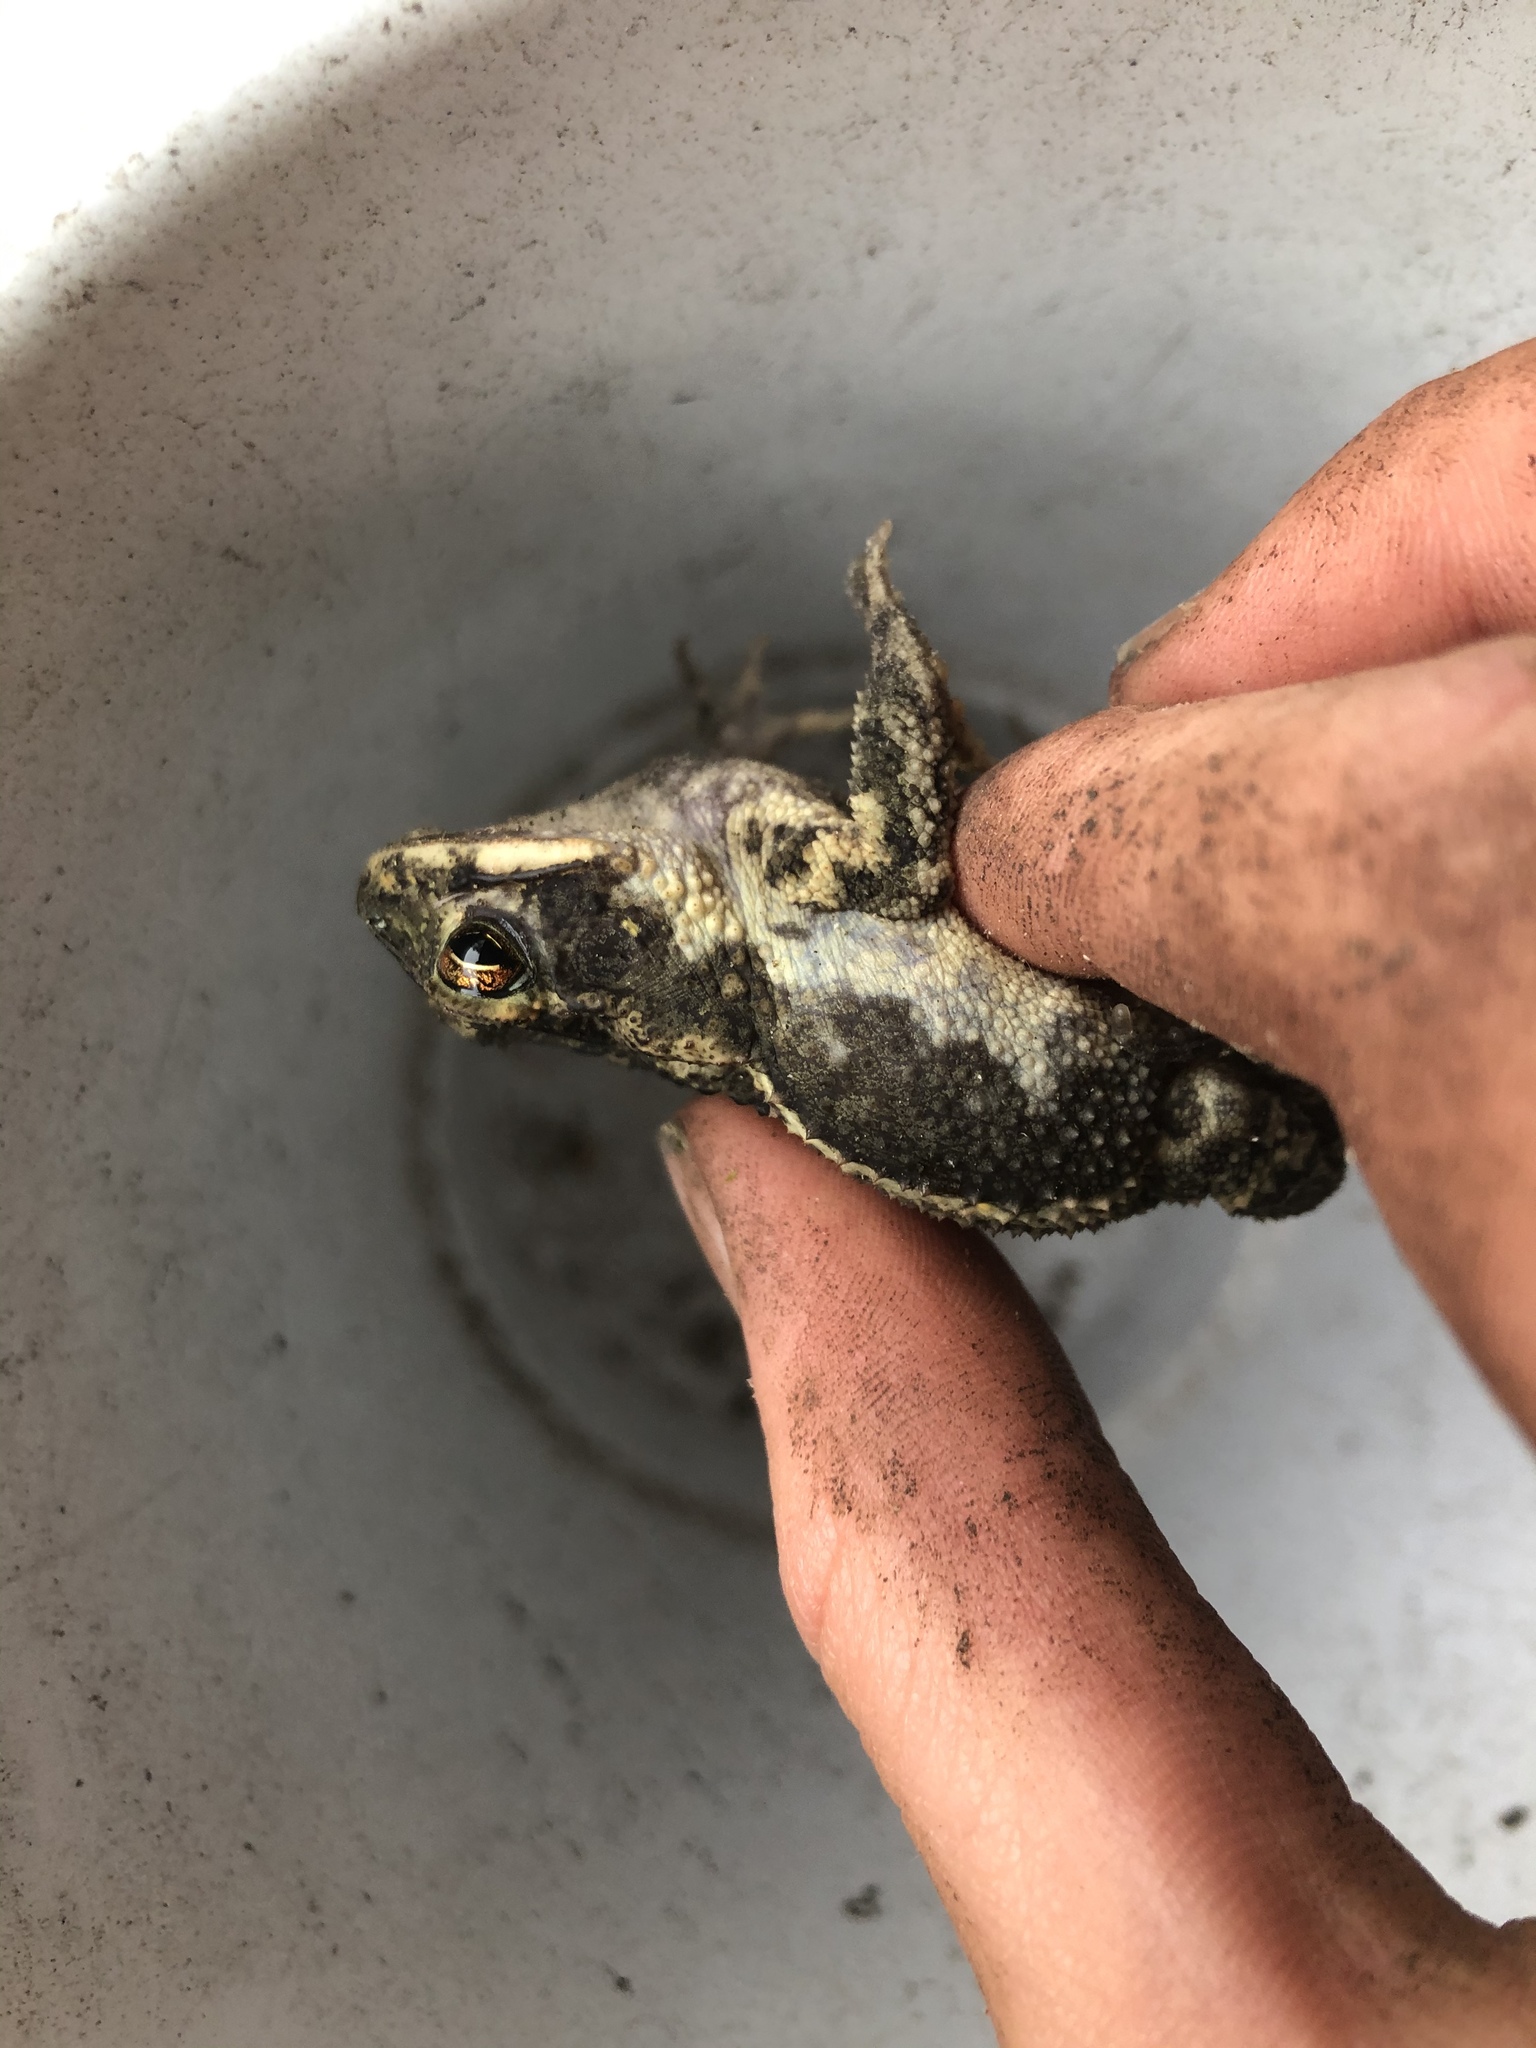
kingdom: Animalia
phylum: Chordata
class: Amphibia
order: Anura
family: Bufonidae
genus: Incilius
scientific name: Incilius nebulifer
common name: Gulf coast toad
